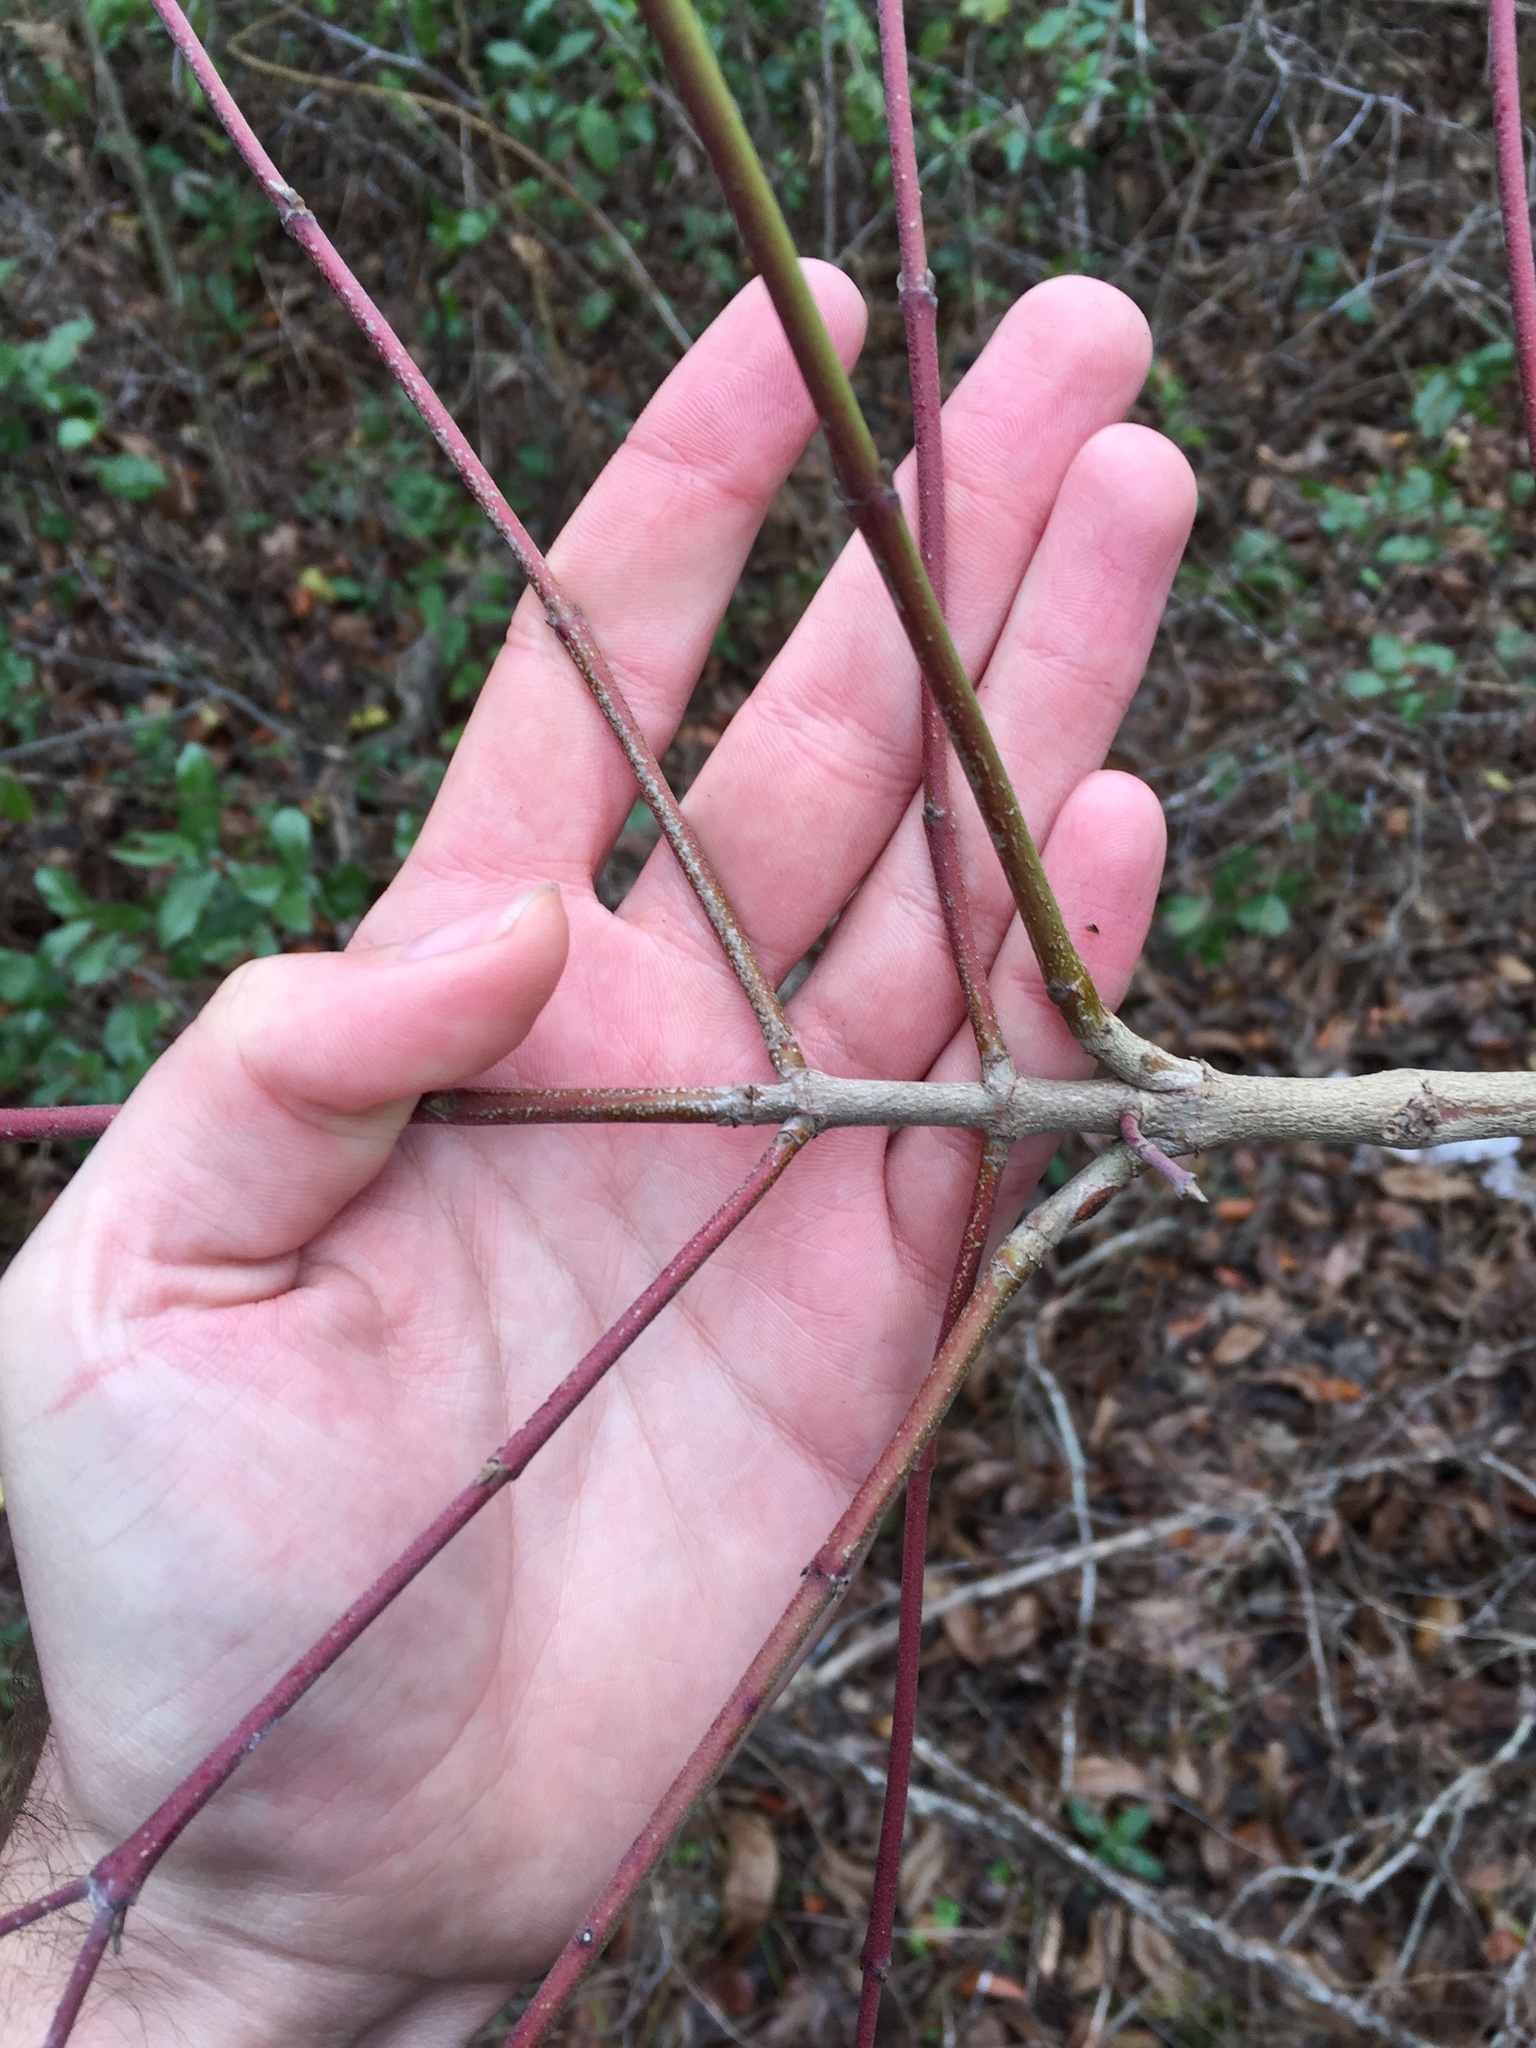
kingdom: Plantae
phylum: Tracheophyta
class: Magnoliopsida
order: Cornales
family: Cornaceae
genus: Cornus
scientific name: Cornus drummondii
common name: Rough-leaf dogwood
